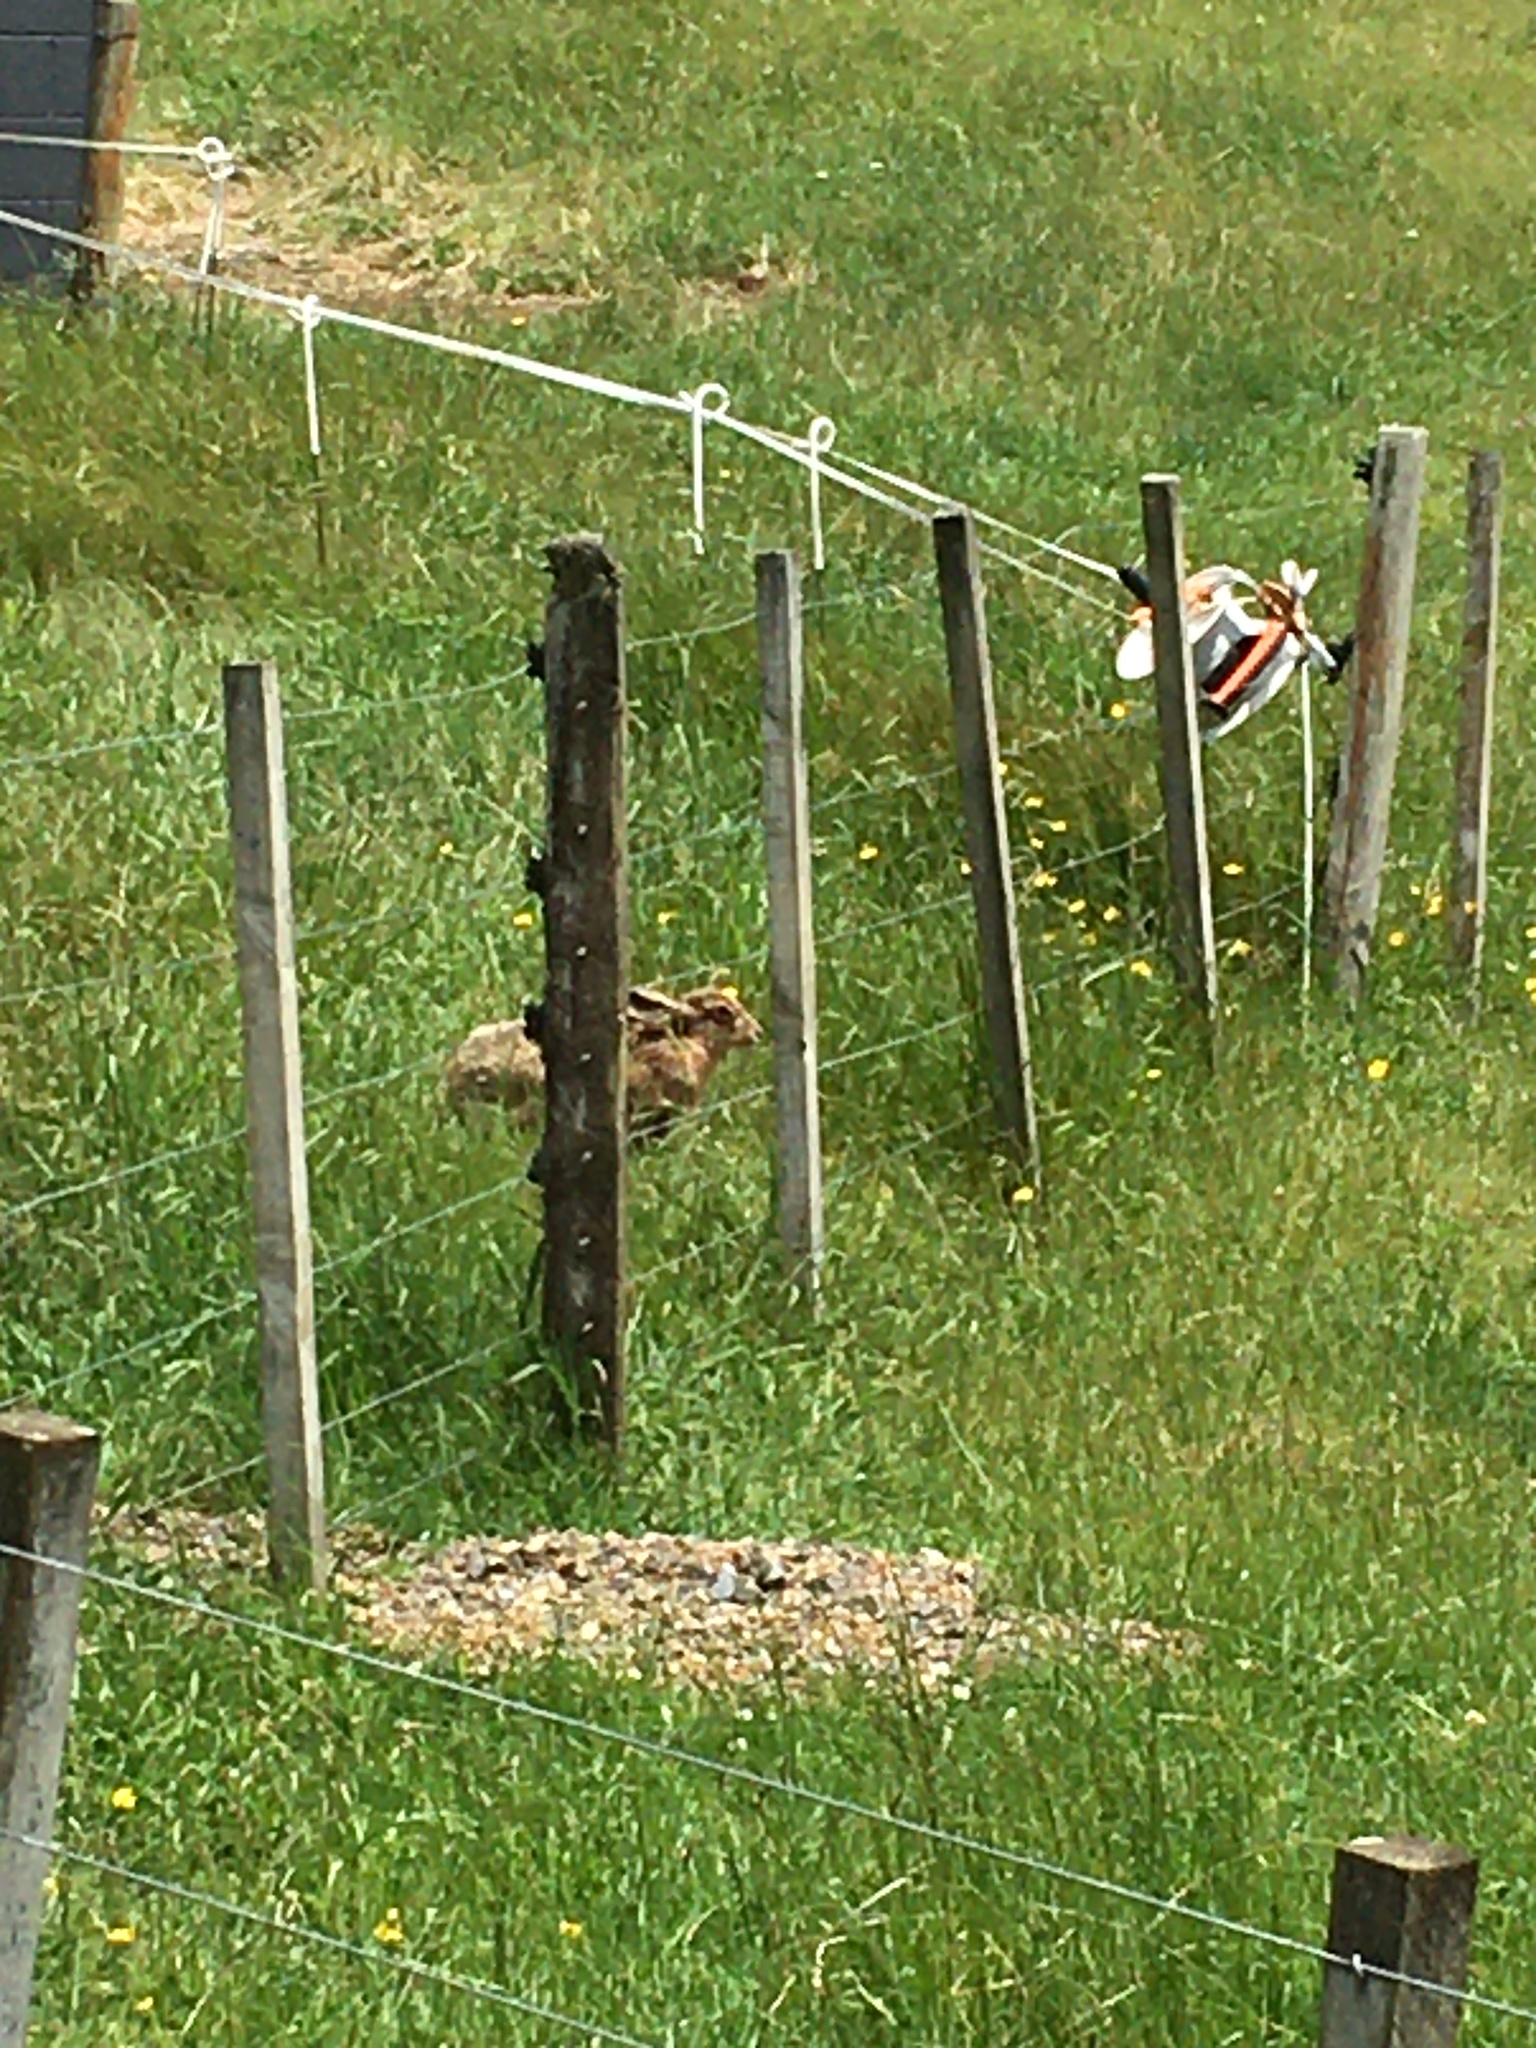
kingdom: Animalia
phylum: Chordata
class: Mammalia
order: Lagomorpha
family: Leporidae
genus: Lepus
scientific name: Lepus europaeus
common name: European hare
